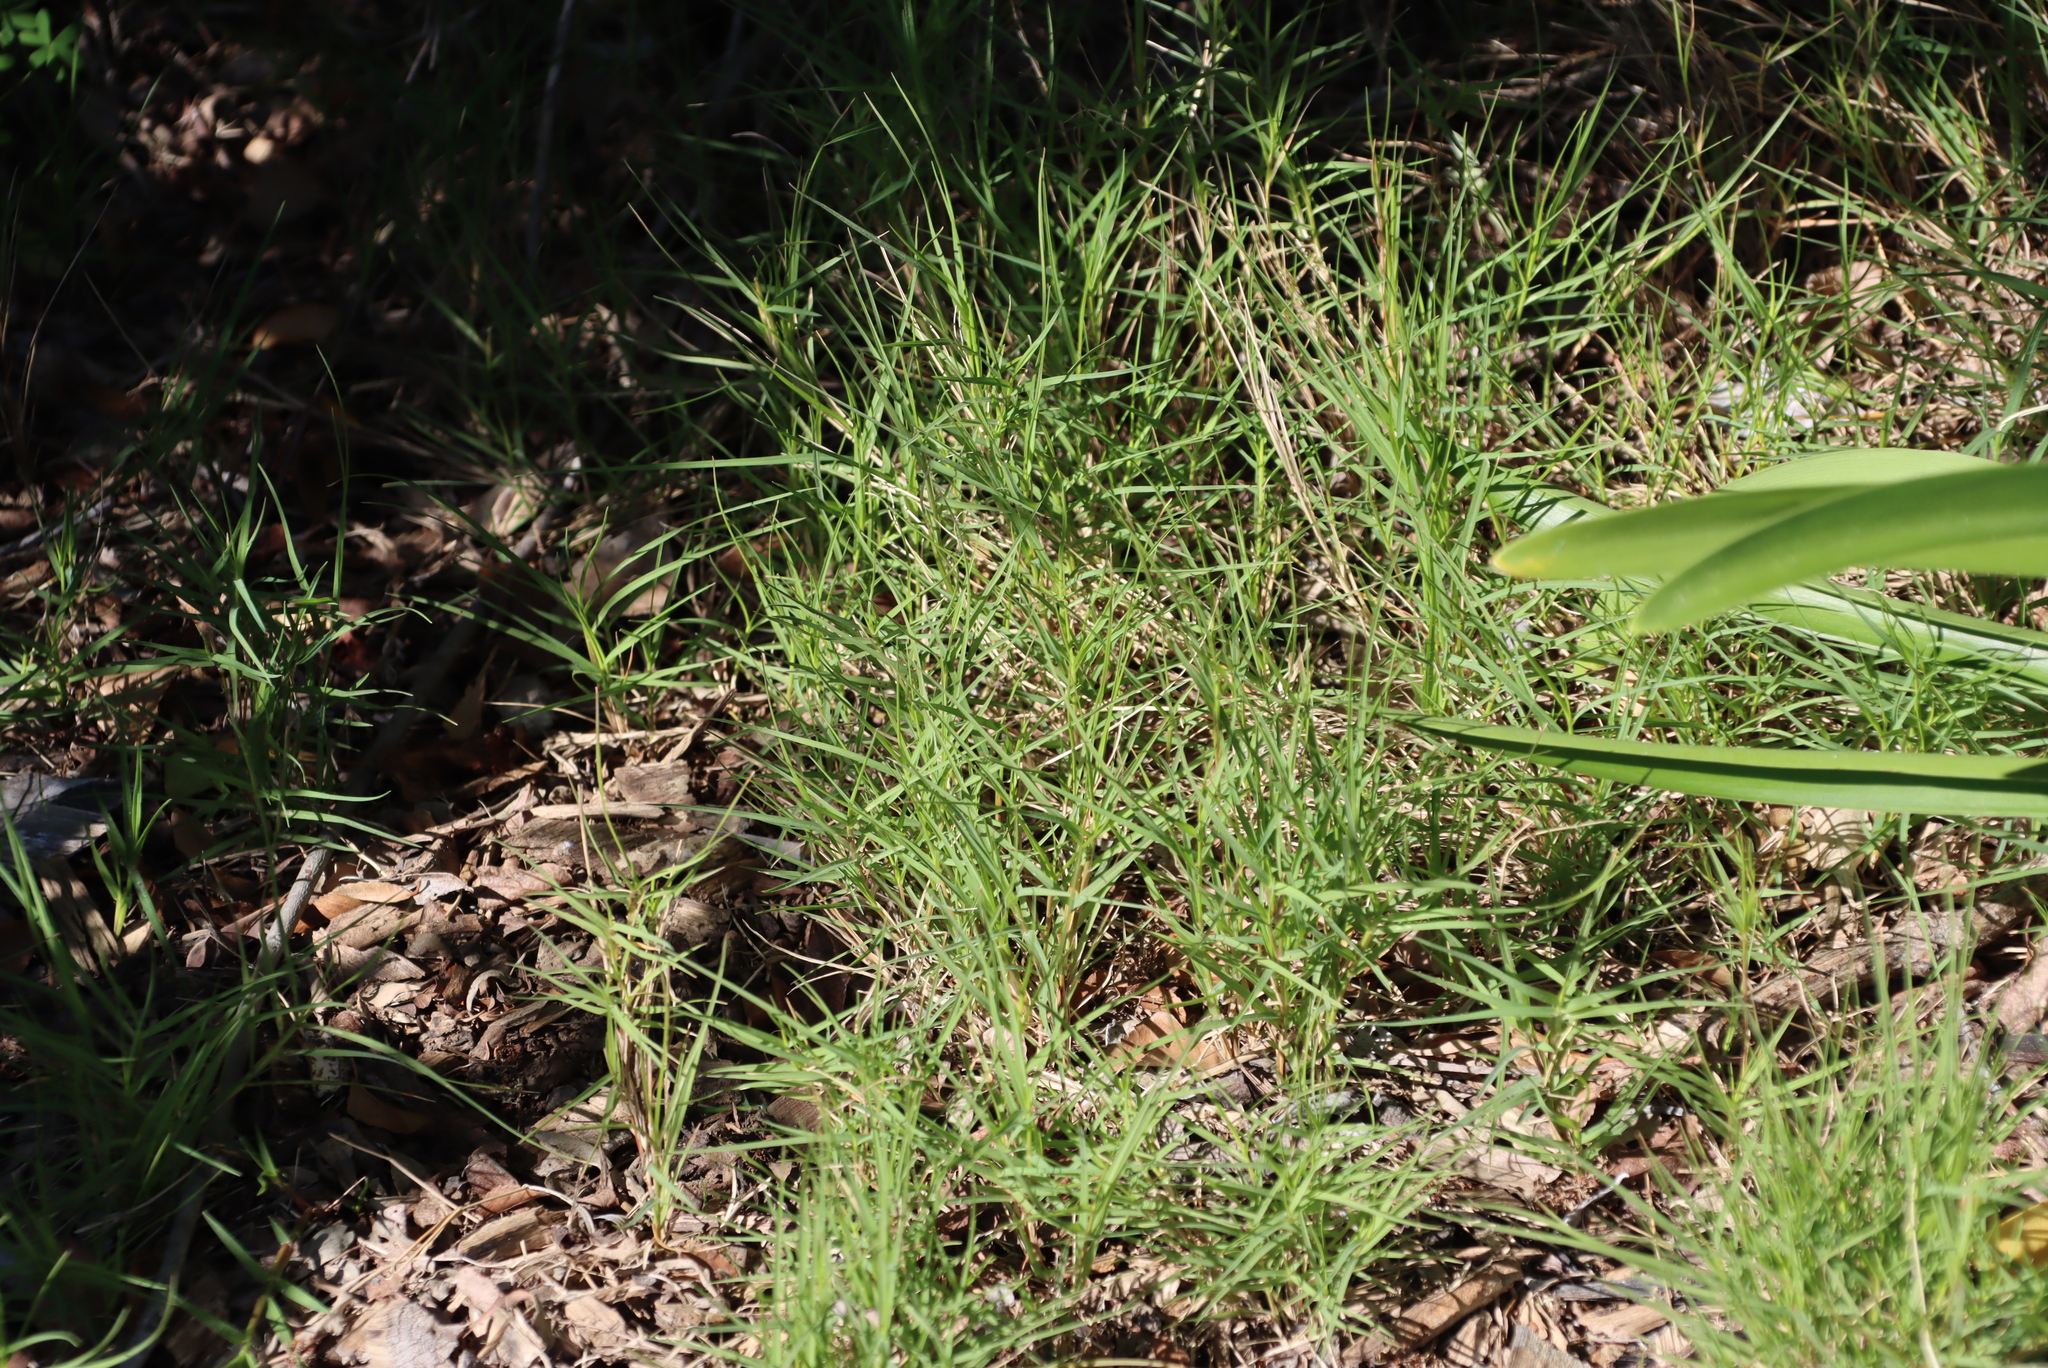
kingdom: Plantae
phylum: Tracheophyta
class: Liliopsida
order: Poales
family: Poaceae
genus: Cenchrus
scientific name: Cenchrus clandestinus
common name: Kikuyugrass
